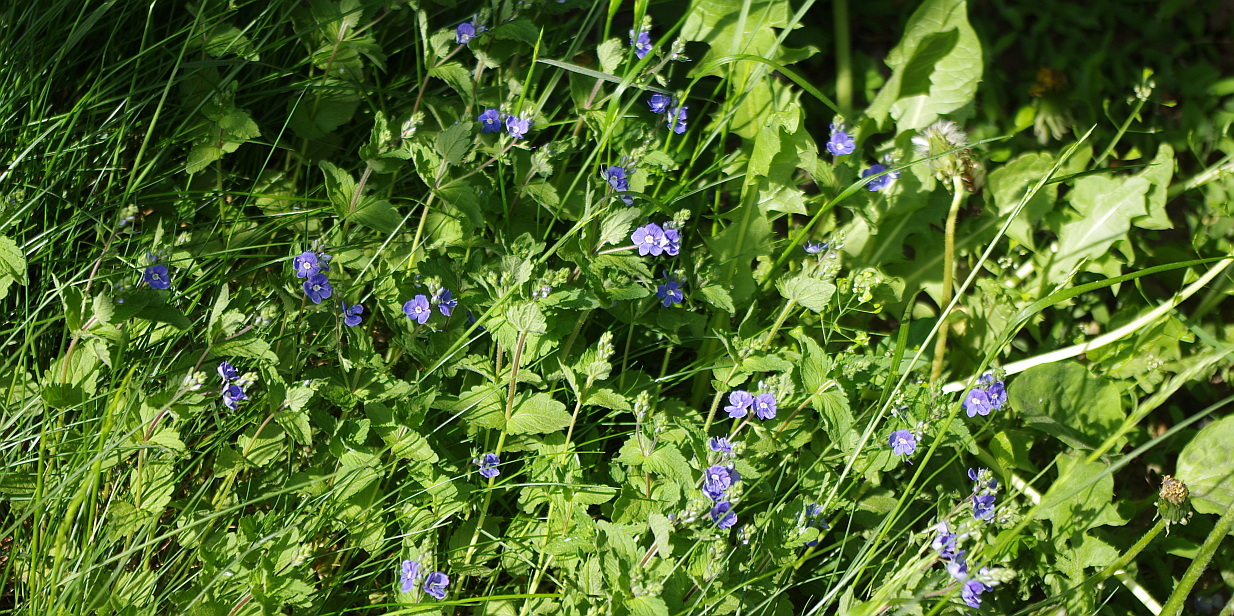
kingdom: Plantae
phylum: Tracheophyta
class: Magnoliopsida
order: Lamiales
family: Plantaginaceae
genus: Veronica
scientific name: Veronica chamaedrys
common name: Germander speedwell
